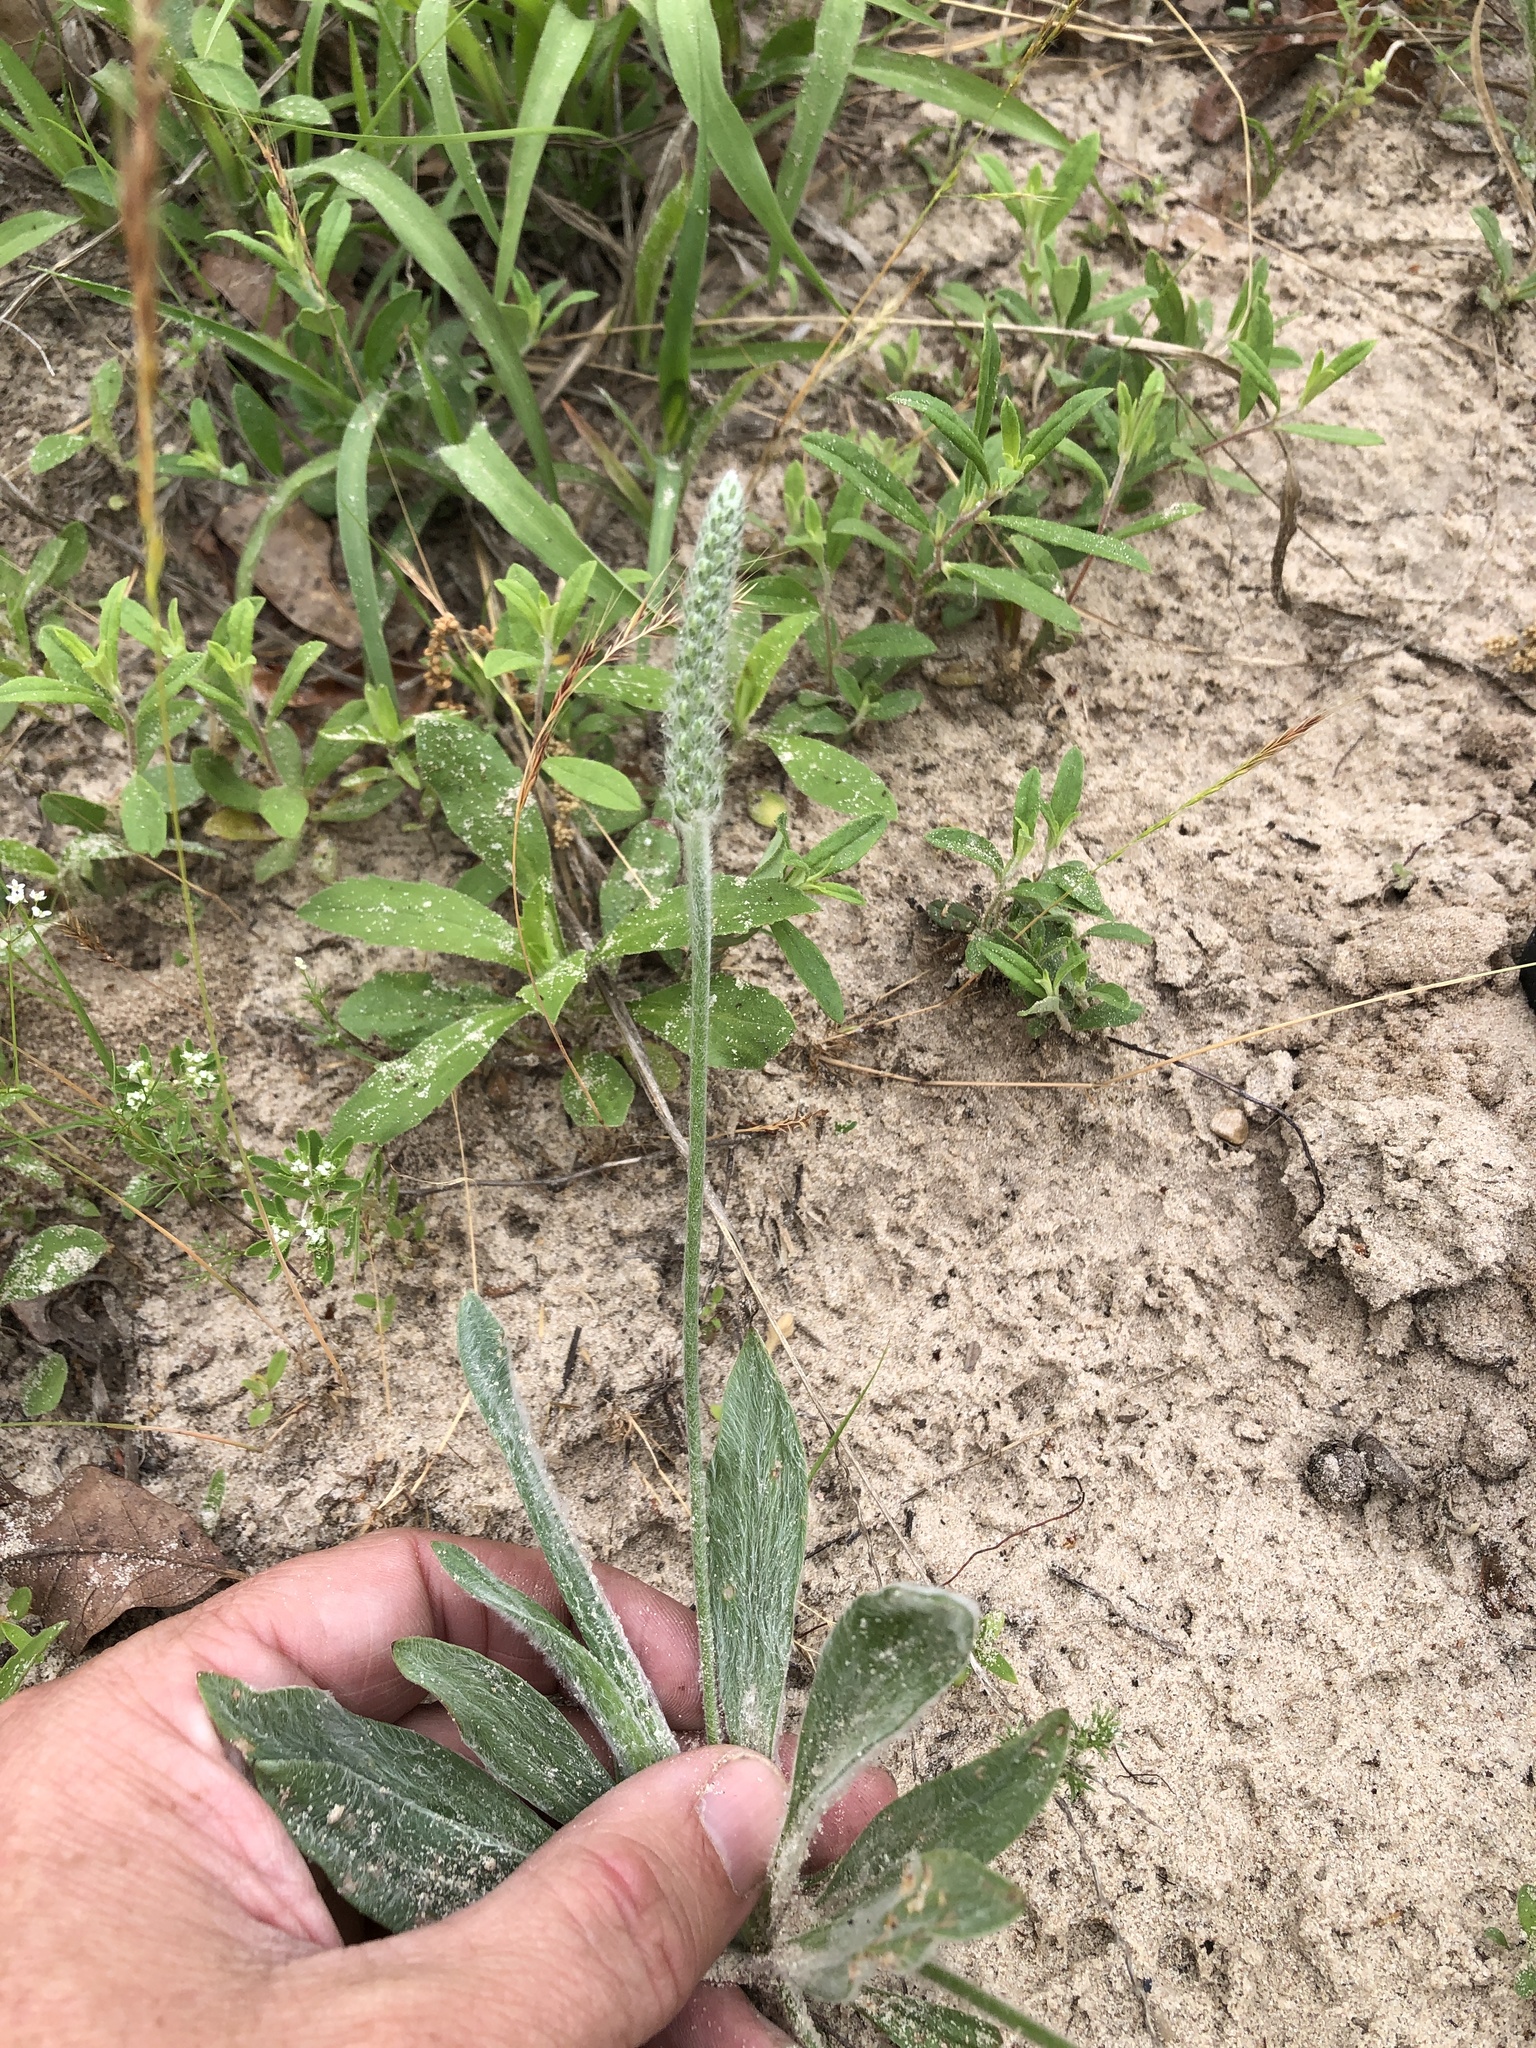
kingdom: Plantae
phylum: Tracheophyta
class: Magnoliopsida
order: Lamiales
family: Plantaginaceae
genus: Plantago
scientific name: Plantago wrightiana
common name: Wright's plantain
